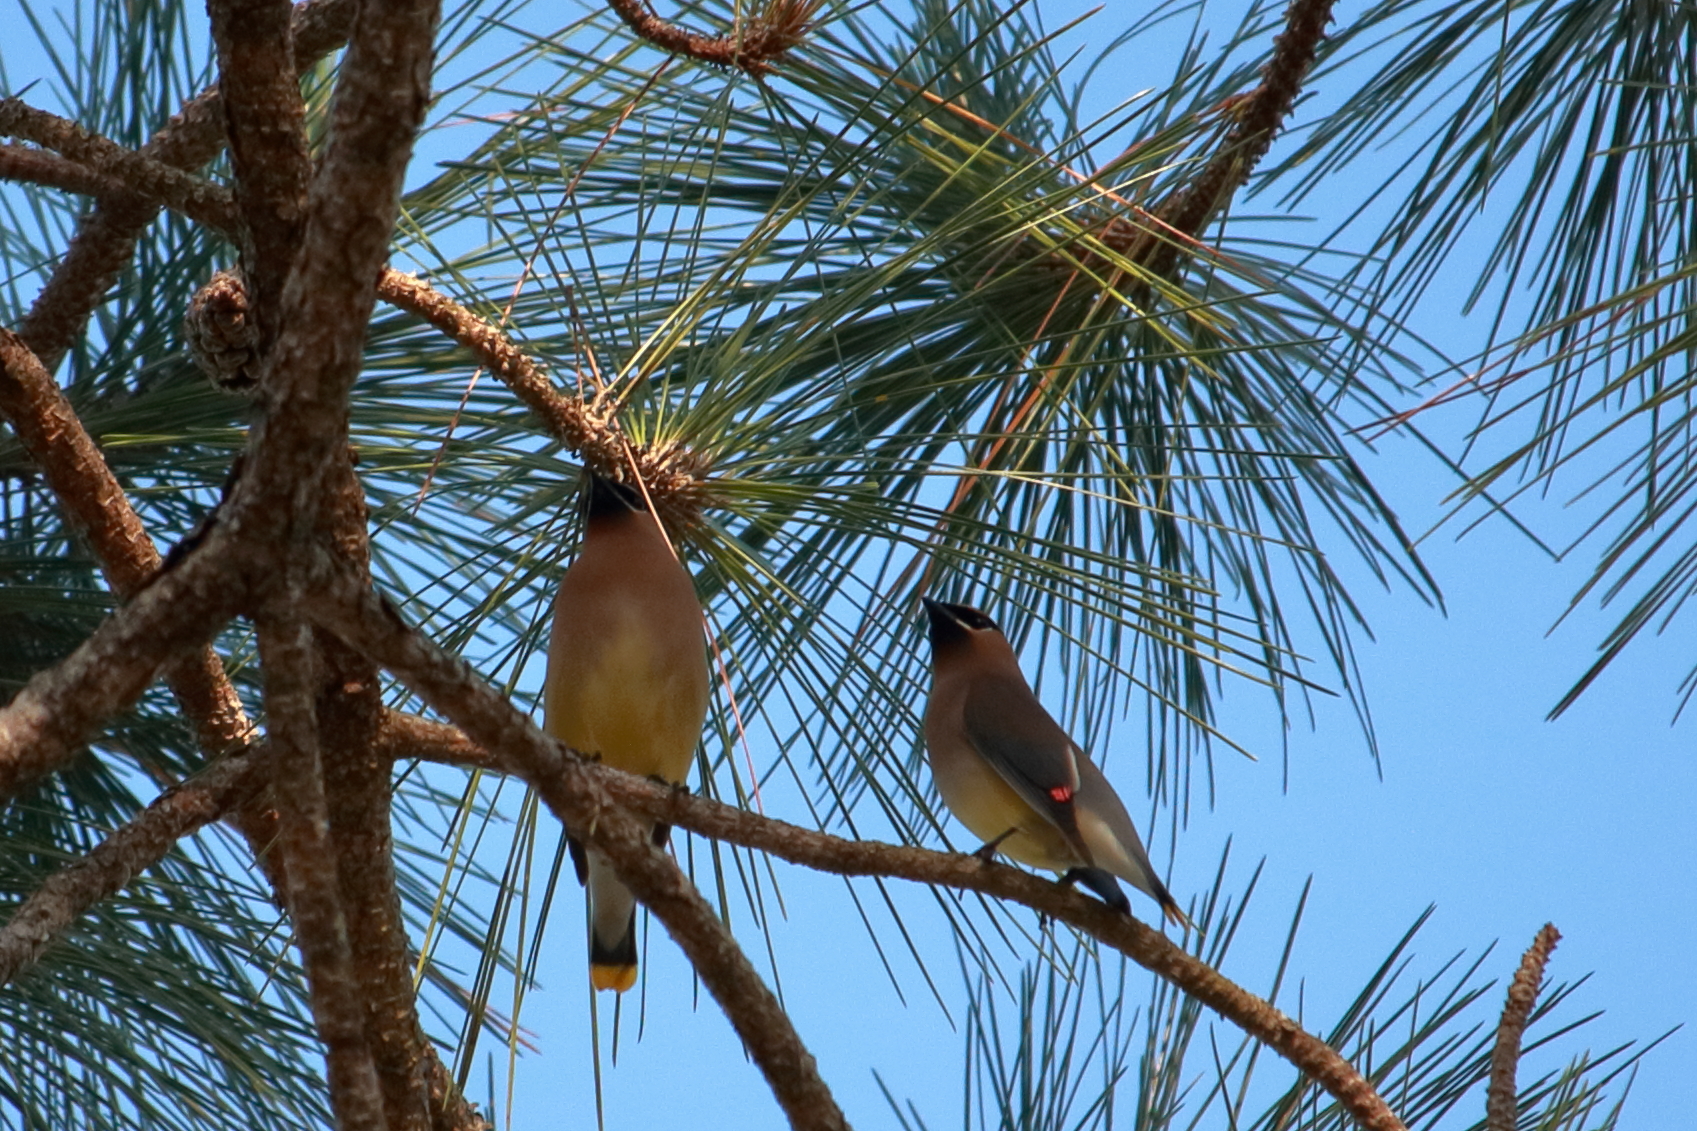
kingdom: Animalia
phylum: Chordata
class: Aves
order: Passeriformes
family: Bombycillidae
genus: Bombycilla
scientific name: Bombycilla cedrorum
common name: Cedar waxwing
